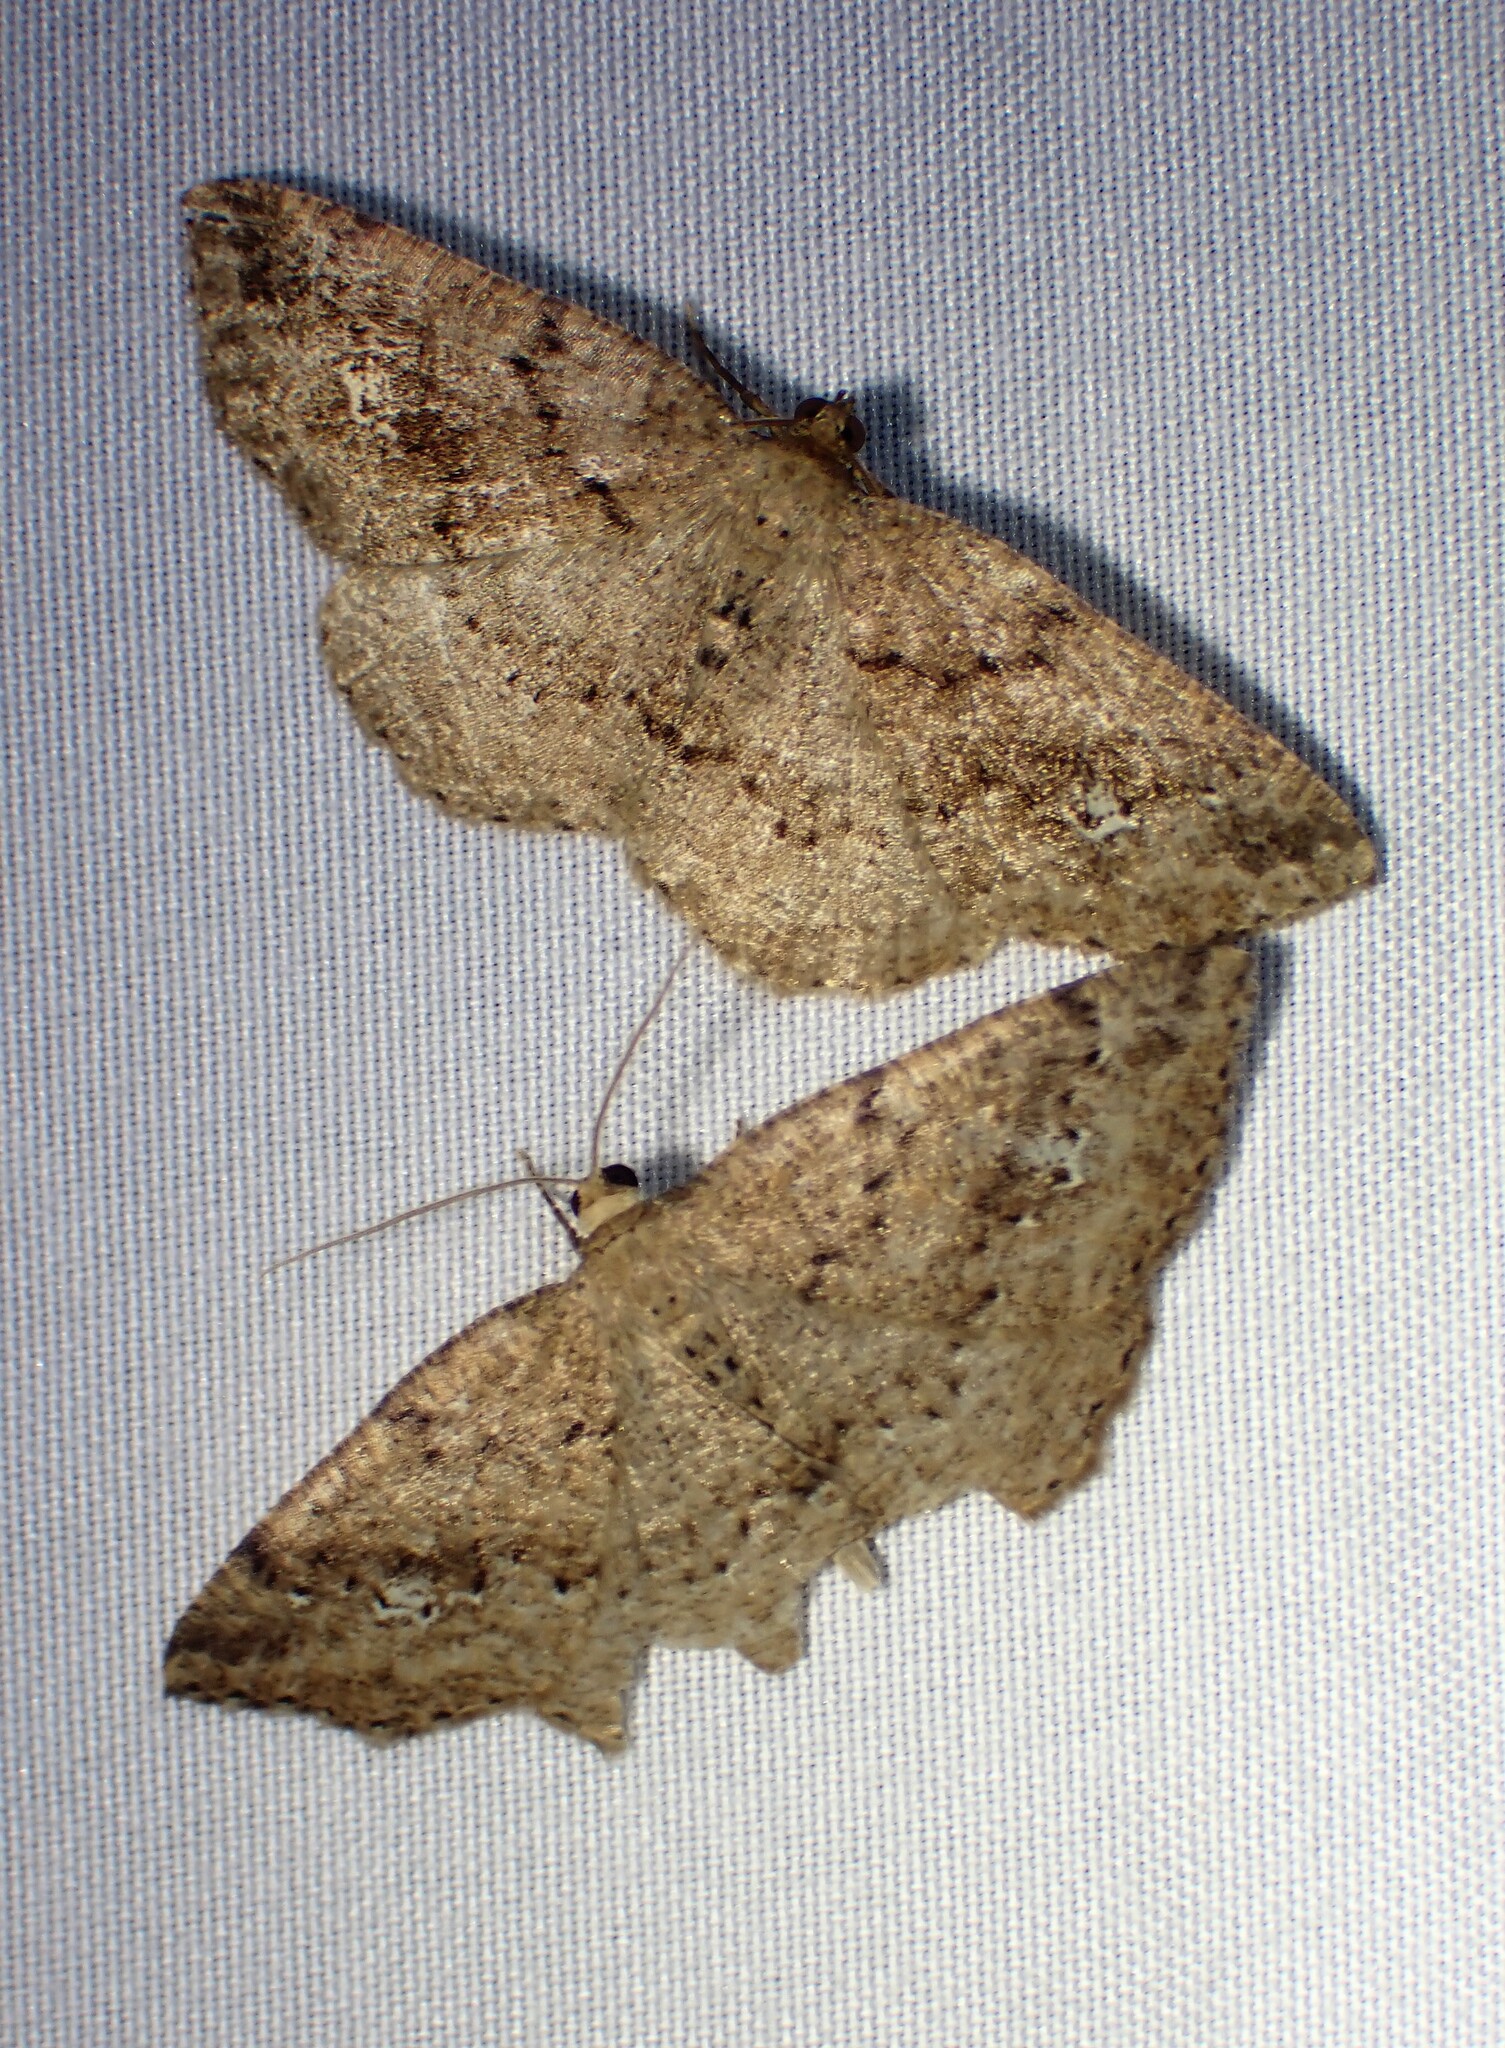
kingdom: Animalia
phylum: Arthropoda
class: Insecta
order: Lepidoptera
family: Geometridae
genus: Homochlodes
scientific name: Homochlodes fritillaria
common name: Pale homochlodes
